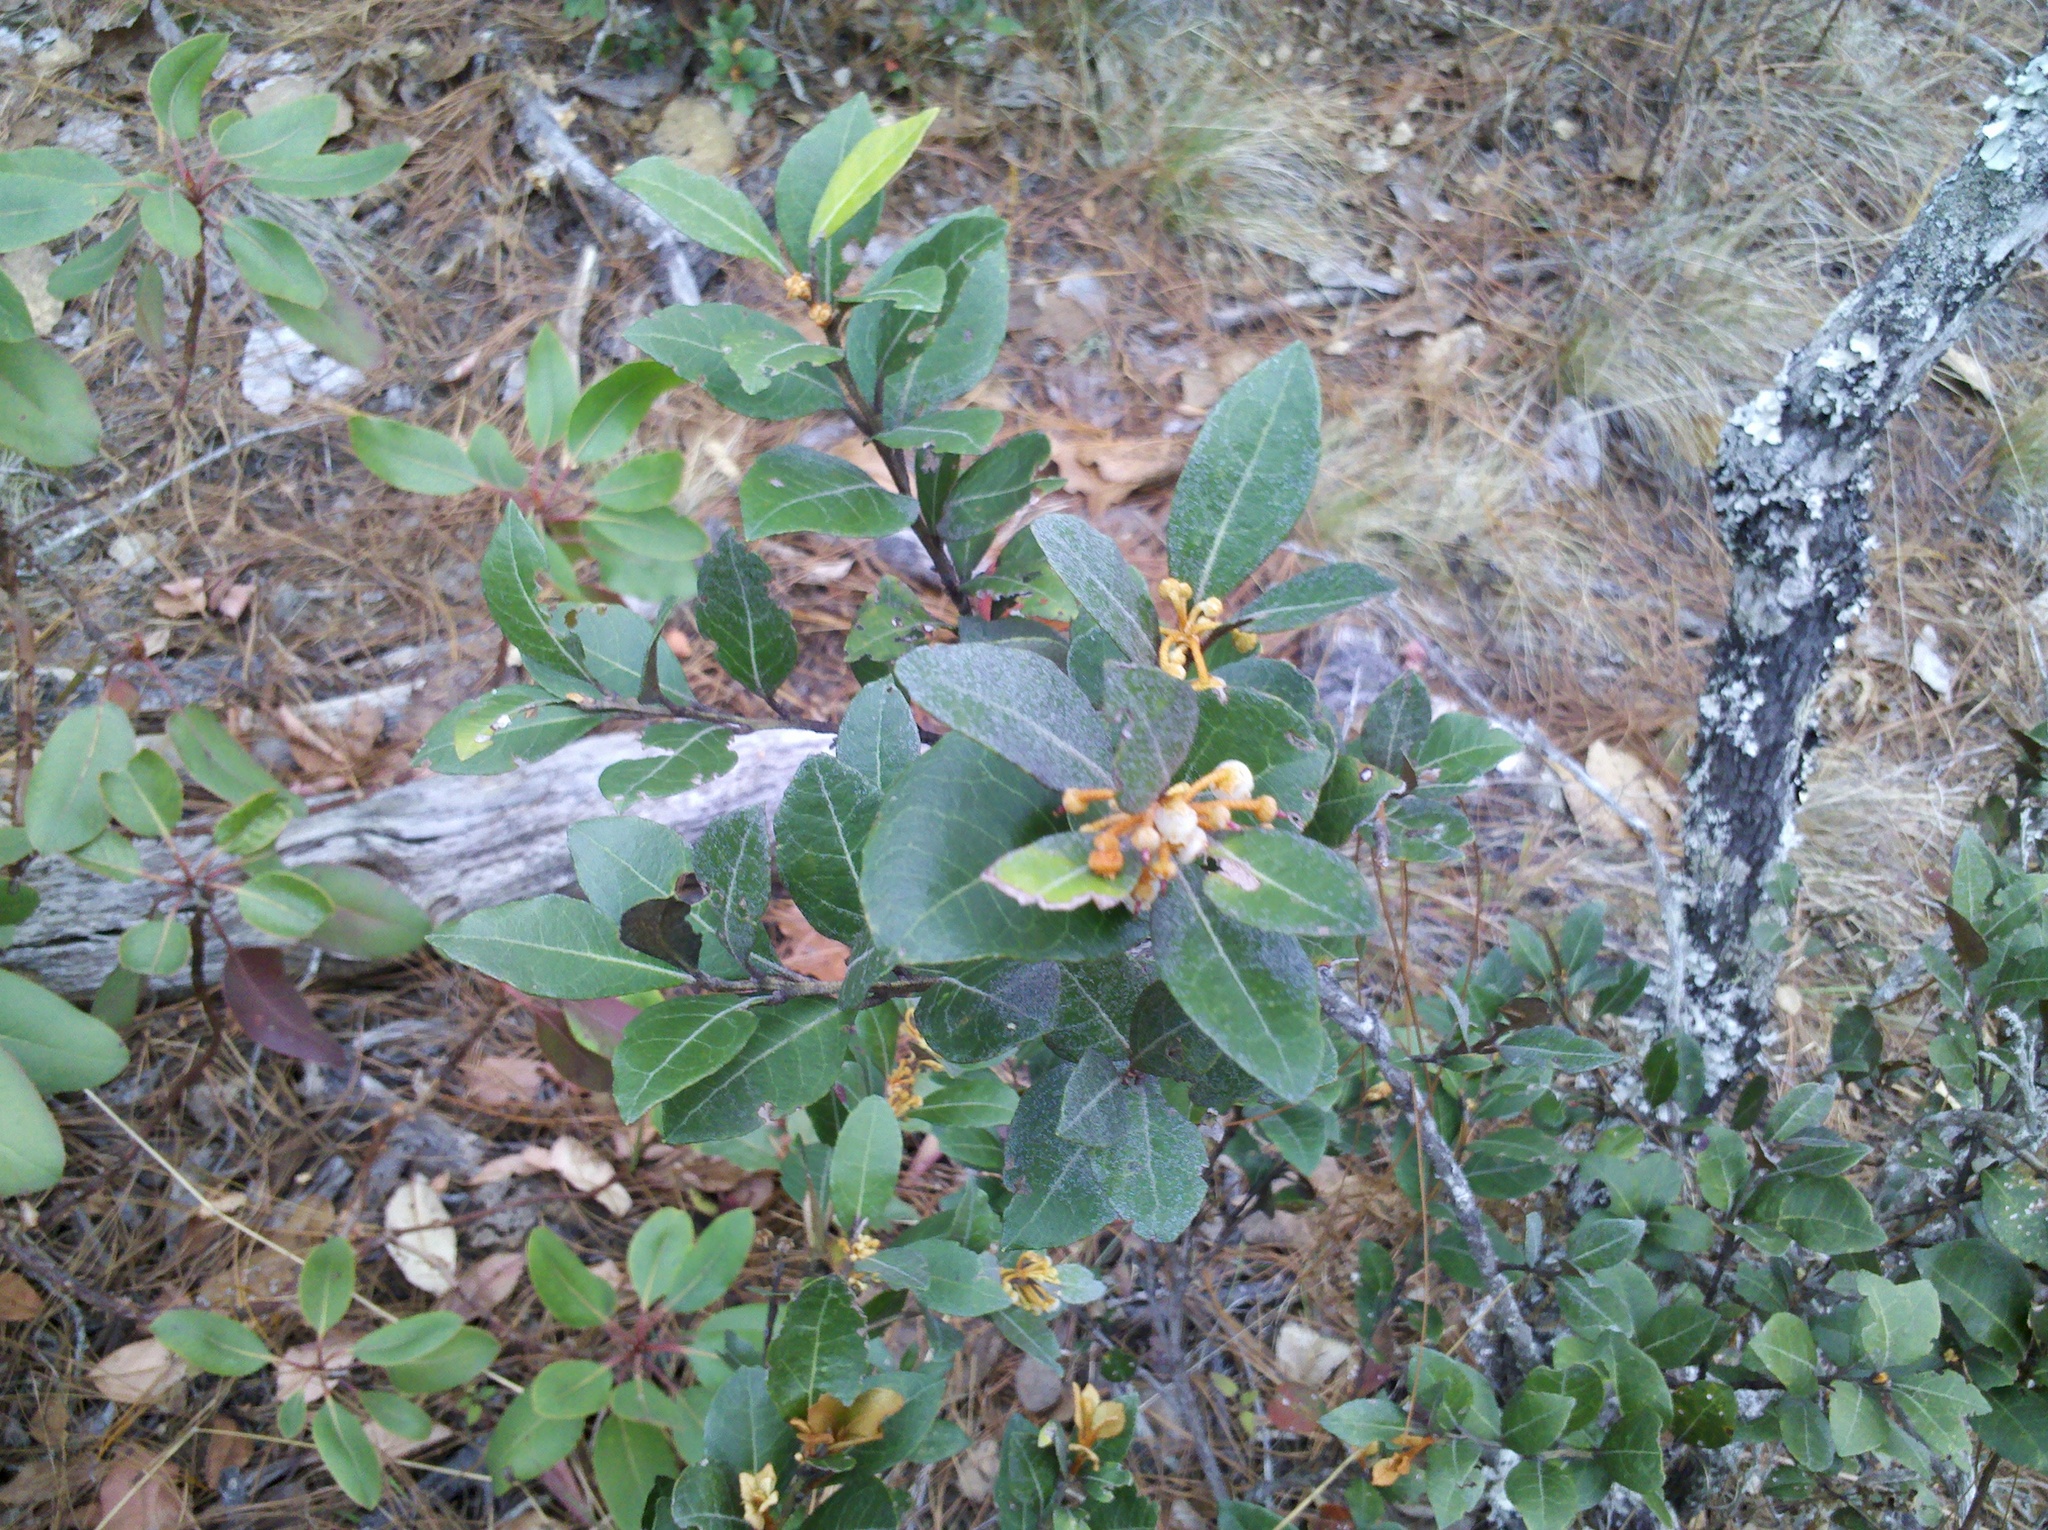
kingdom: Plantae
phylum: Tracheophyta
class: Magnoliopsida
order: Ericales
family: Ericaceae
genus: Lyonia
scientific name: Lyonia squamulosa
